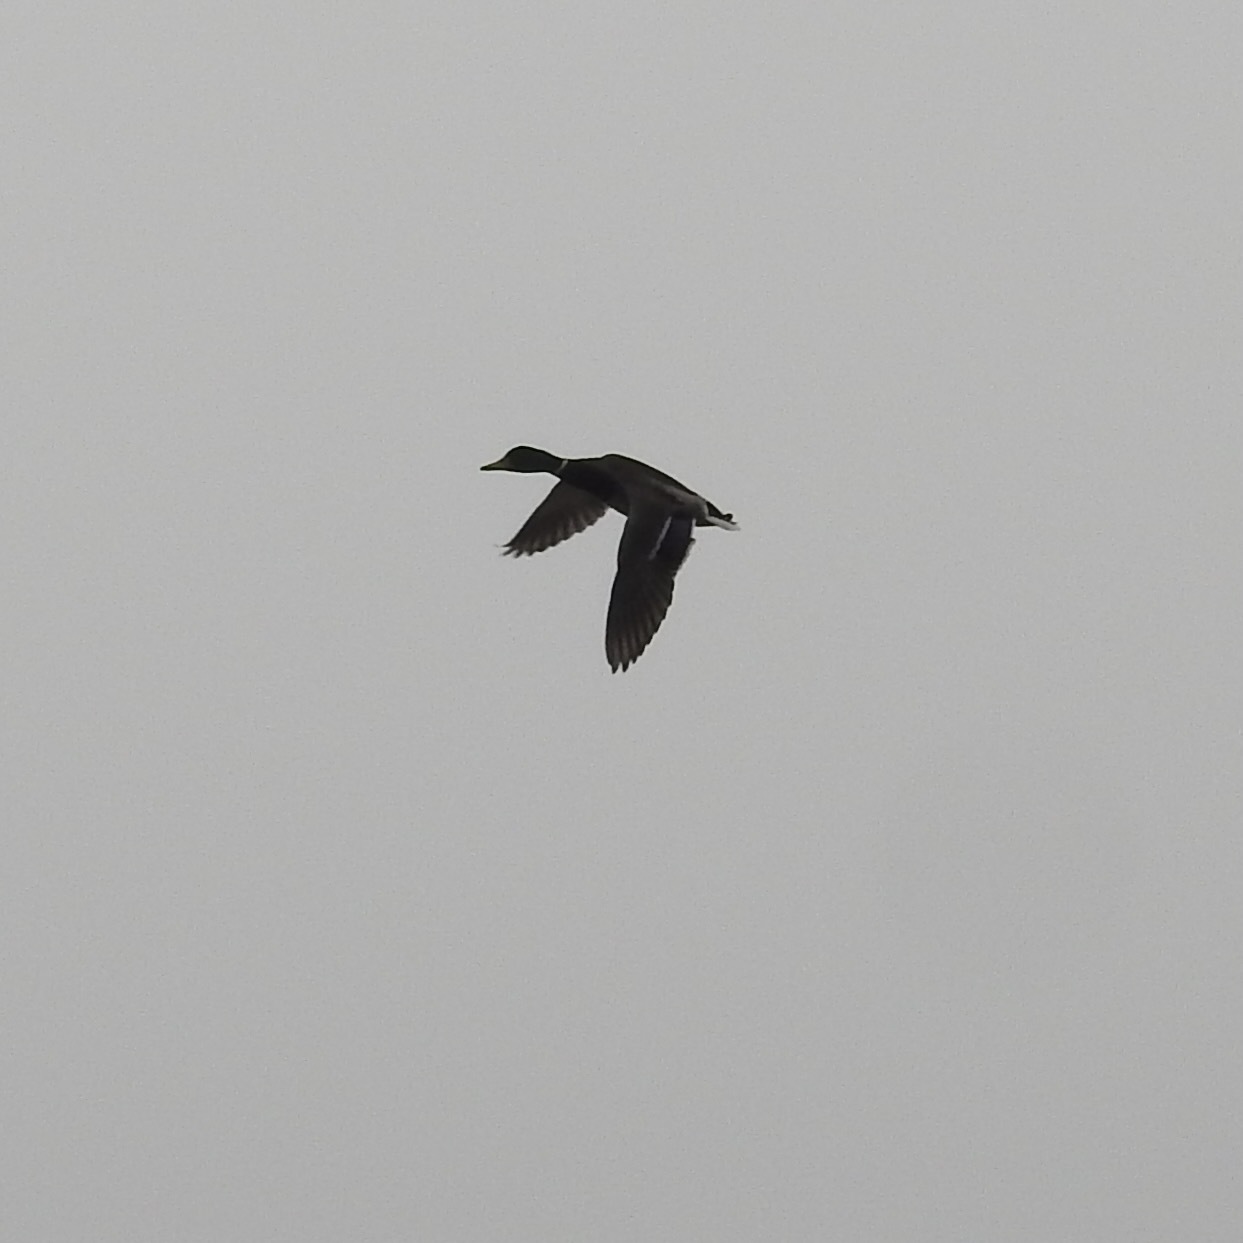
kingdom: Animalia
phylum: Chordata
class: Aves
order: Anseriformes
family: Anatidae
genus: Anas
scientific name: Anas platyrhynchos
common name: Mallard
